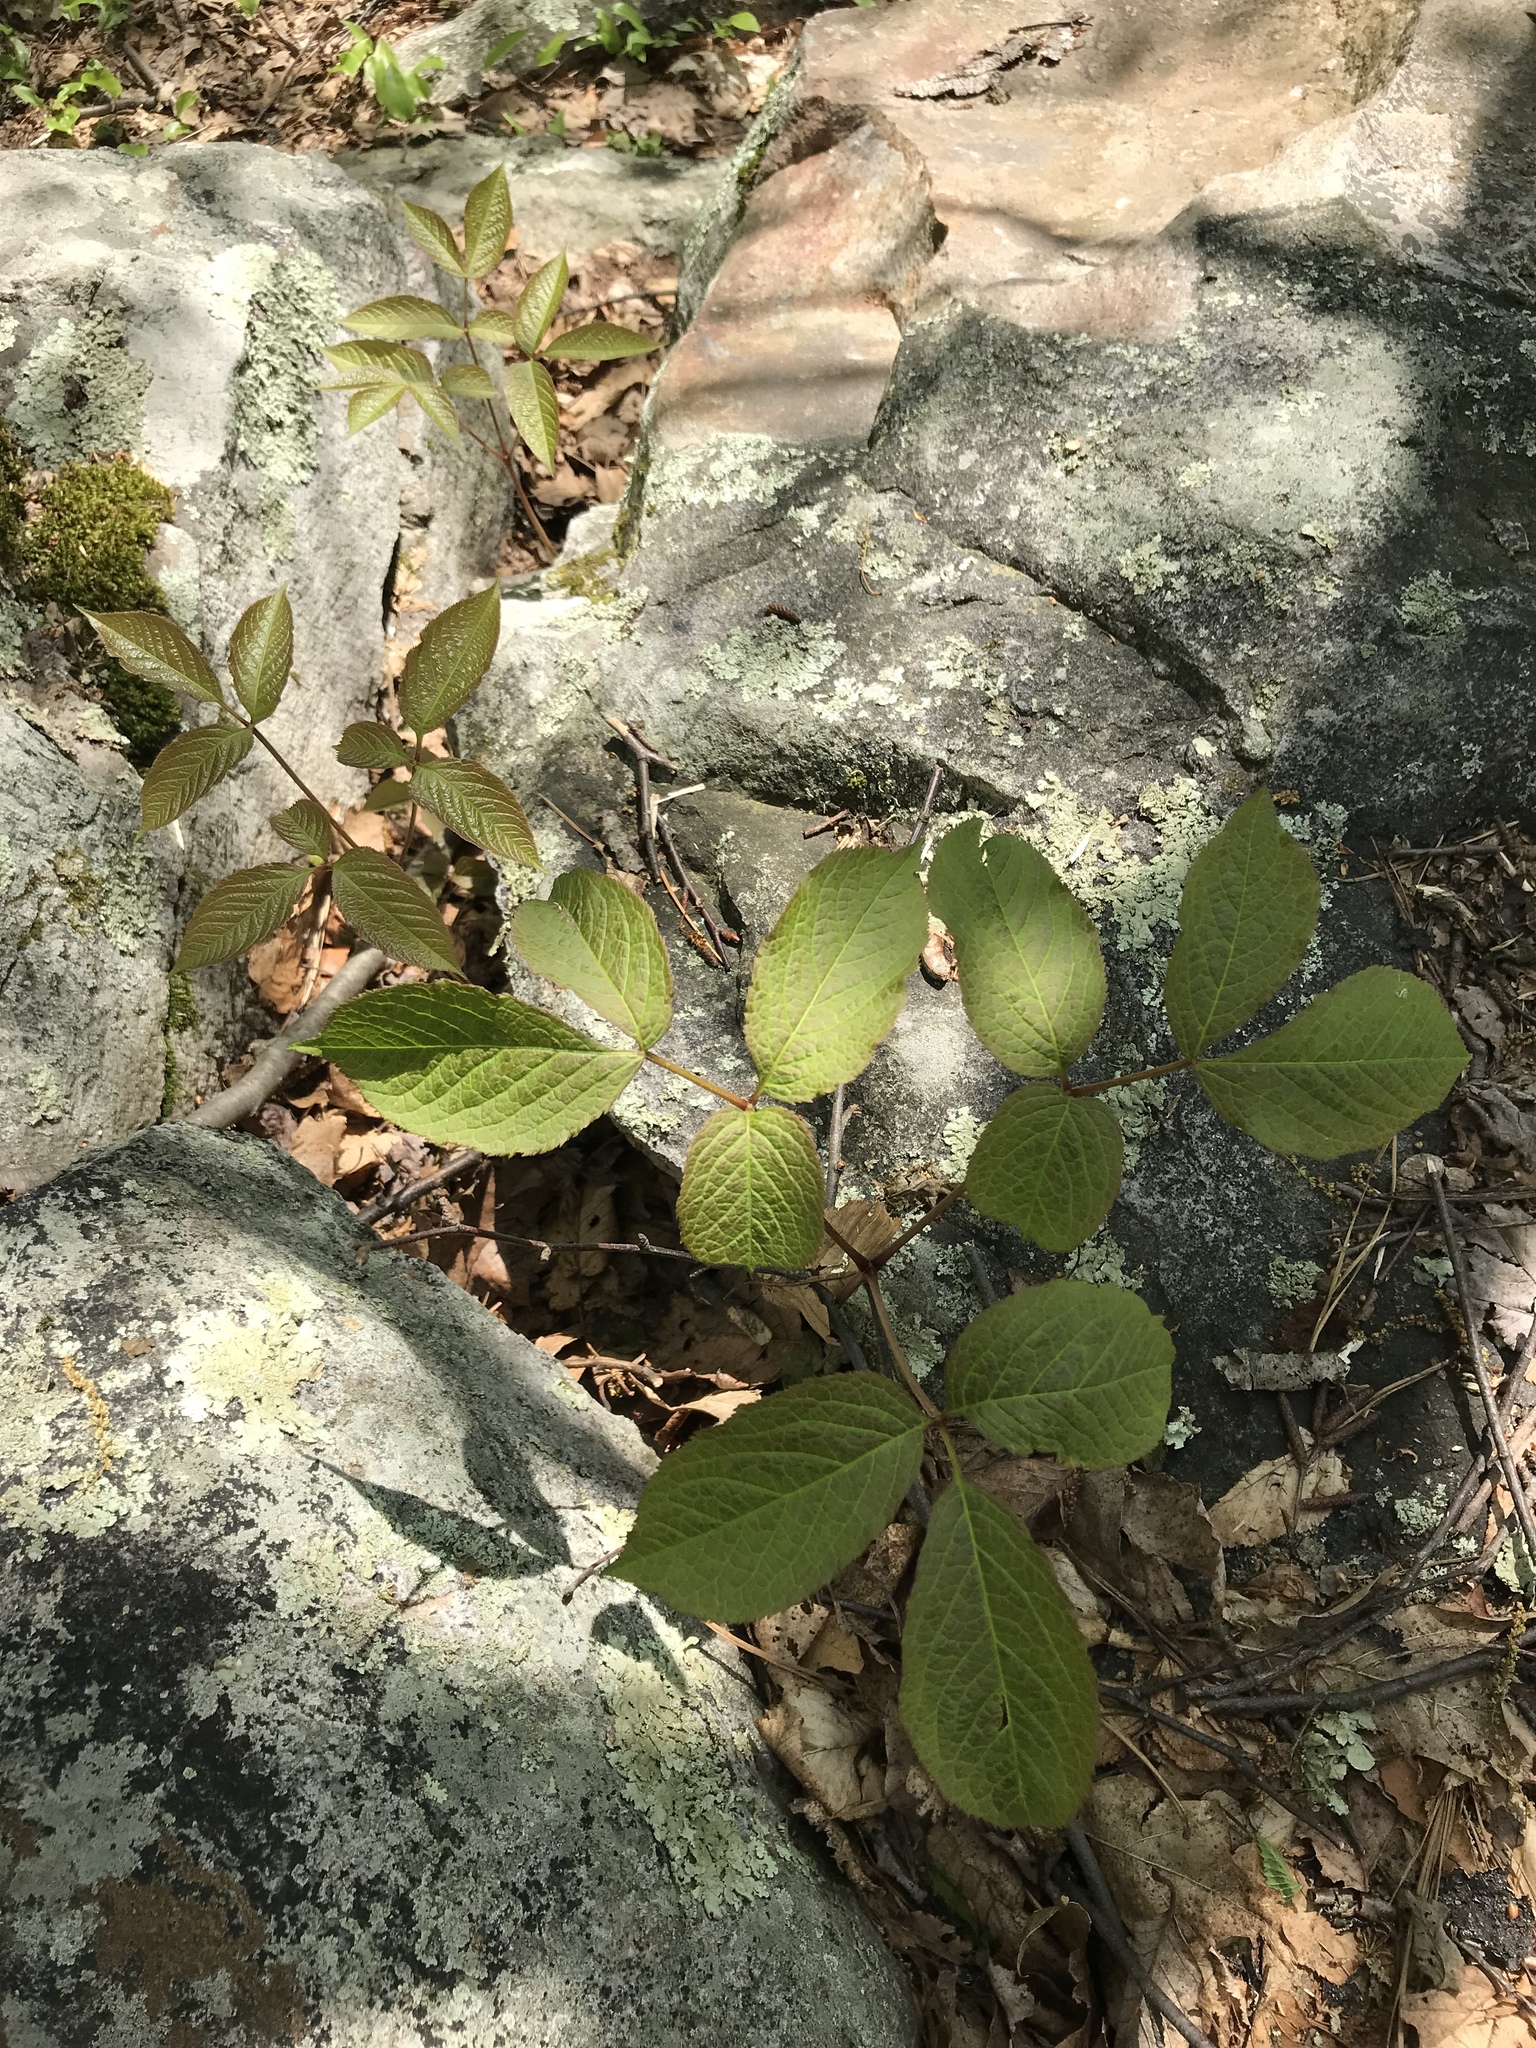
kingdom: Plantae
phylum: Tracheophyta
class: Magnoliopsida
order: Apiales
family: Araliaceae
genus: Aralia
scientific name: Aralia nudicaulis
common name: Wild sarsaparilla
